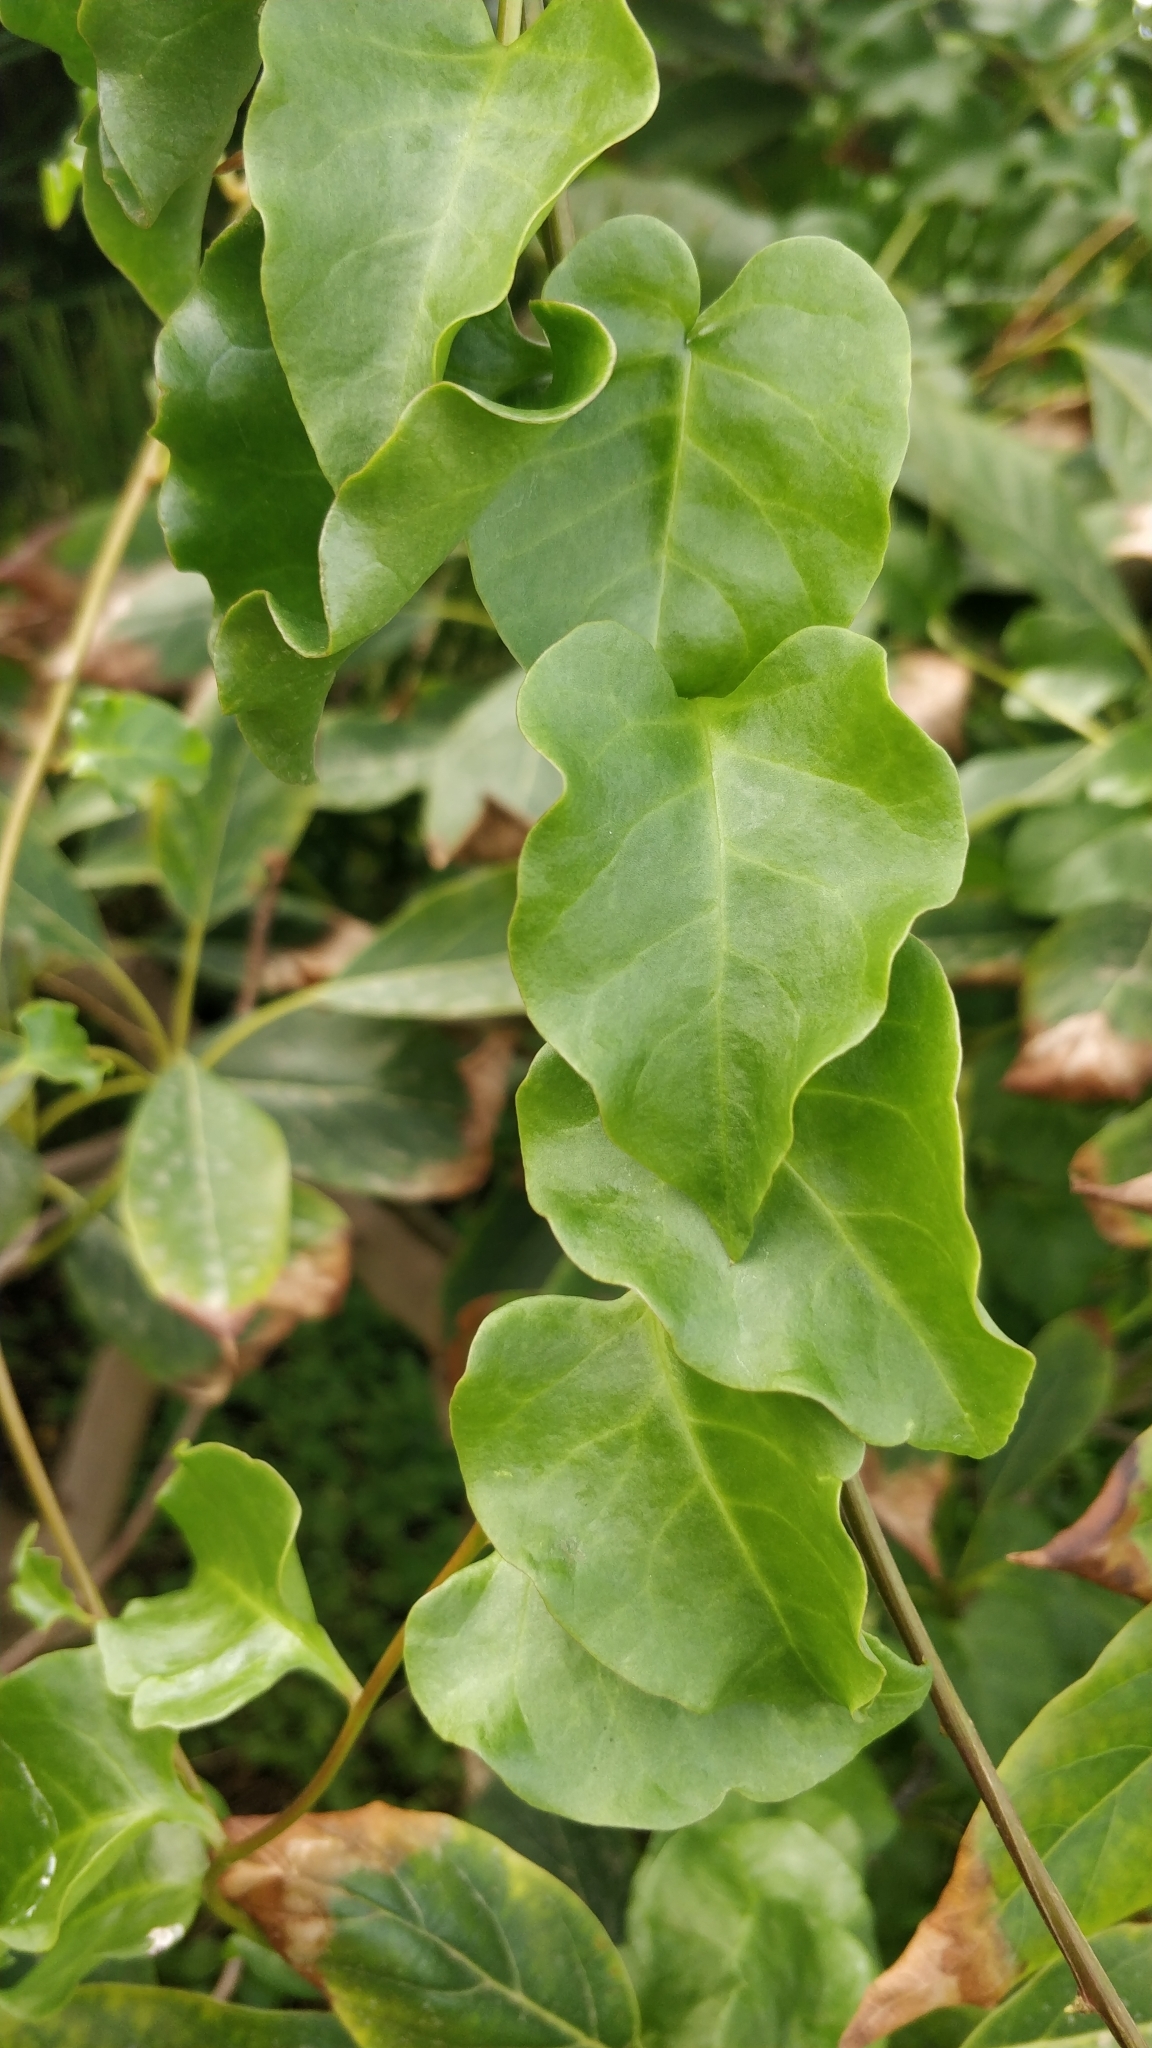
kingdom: Plantae
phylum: Tracheophyta
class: Magnoliopsida
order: Caryophyllales
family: Basellaceae
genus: Anredera
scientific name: Anredera cordifolia
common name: Heartleaf madeiravine
